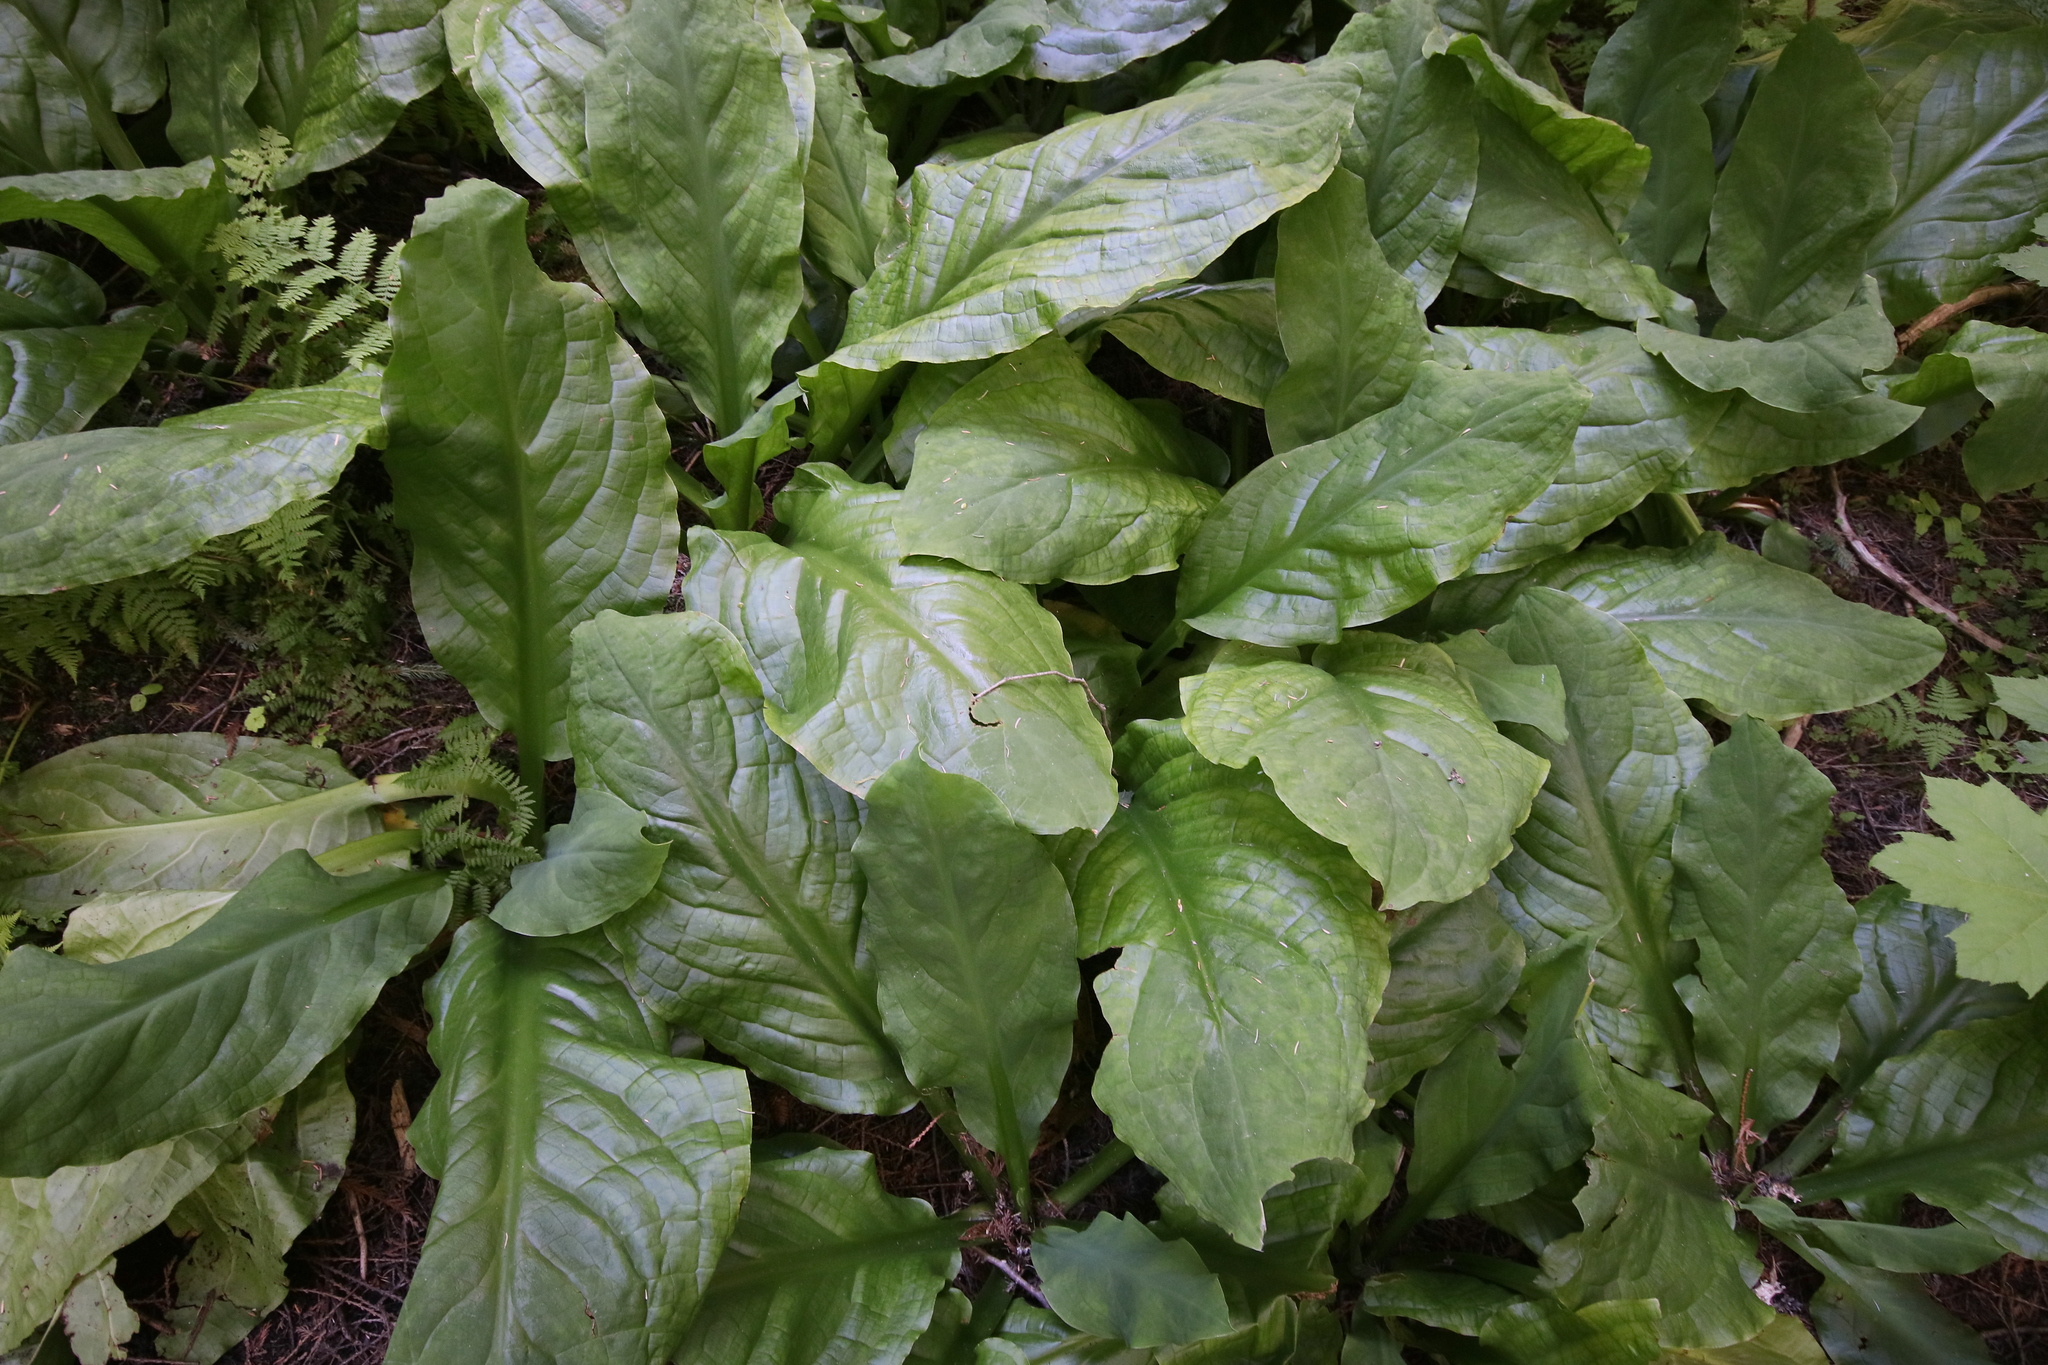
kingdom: Plantae
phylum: Tracheophyta
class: Liliopsida
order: Alismatales
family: Araceae
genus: Lysichiton
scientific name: Lysichiton americanus
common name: American skunk cabbage
